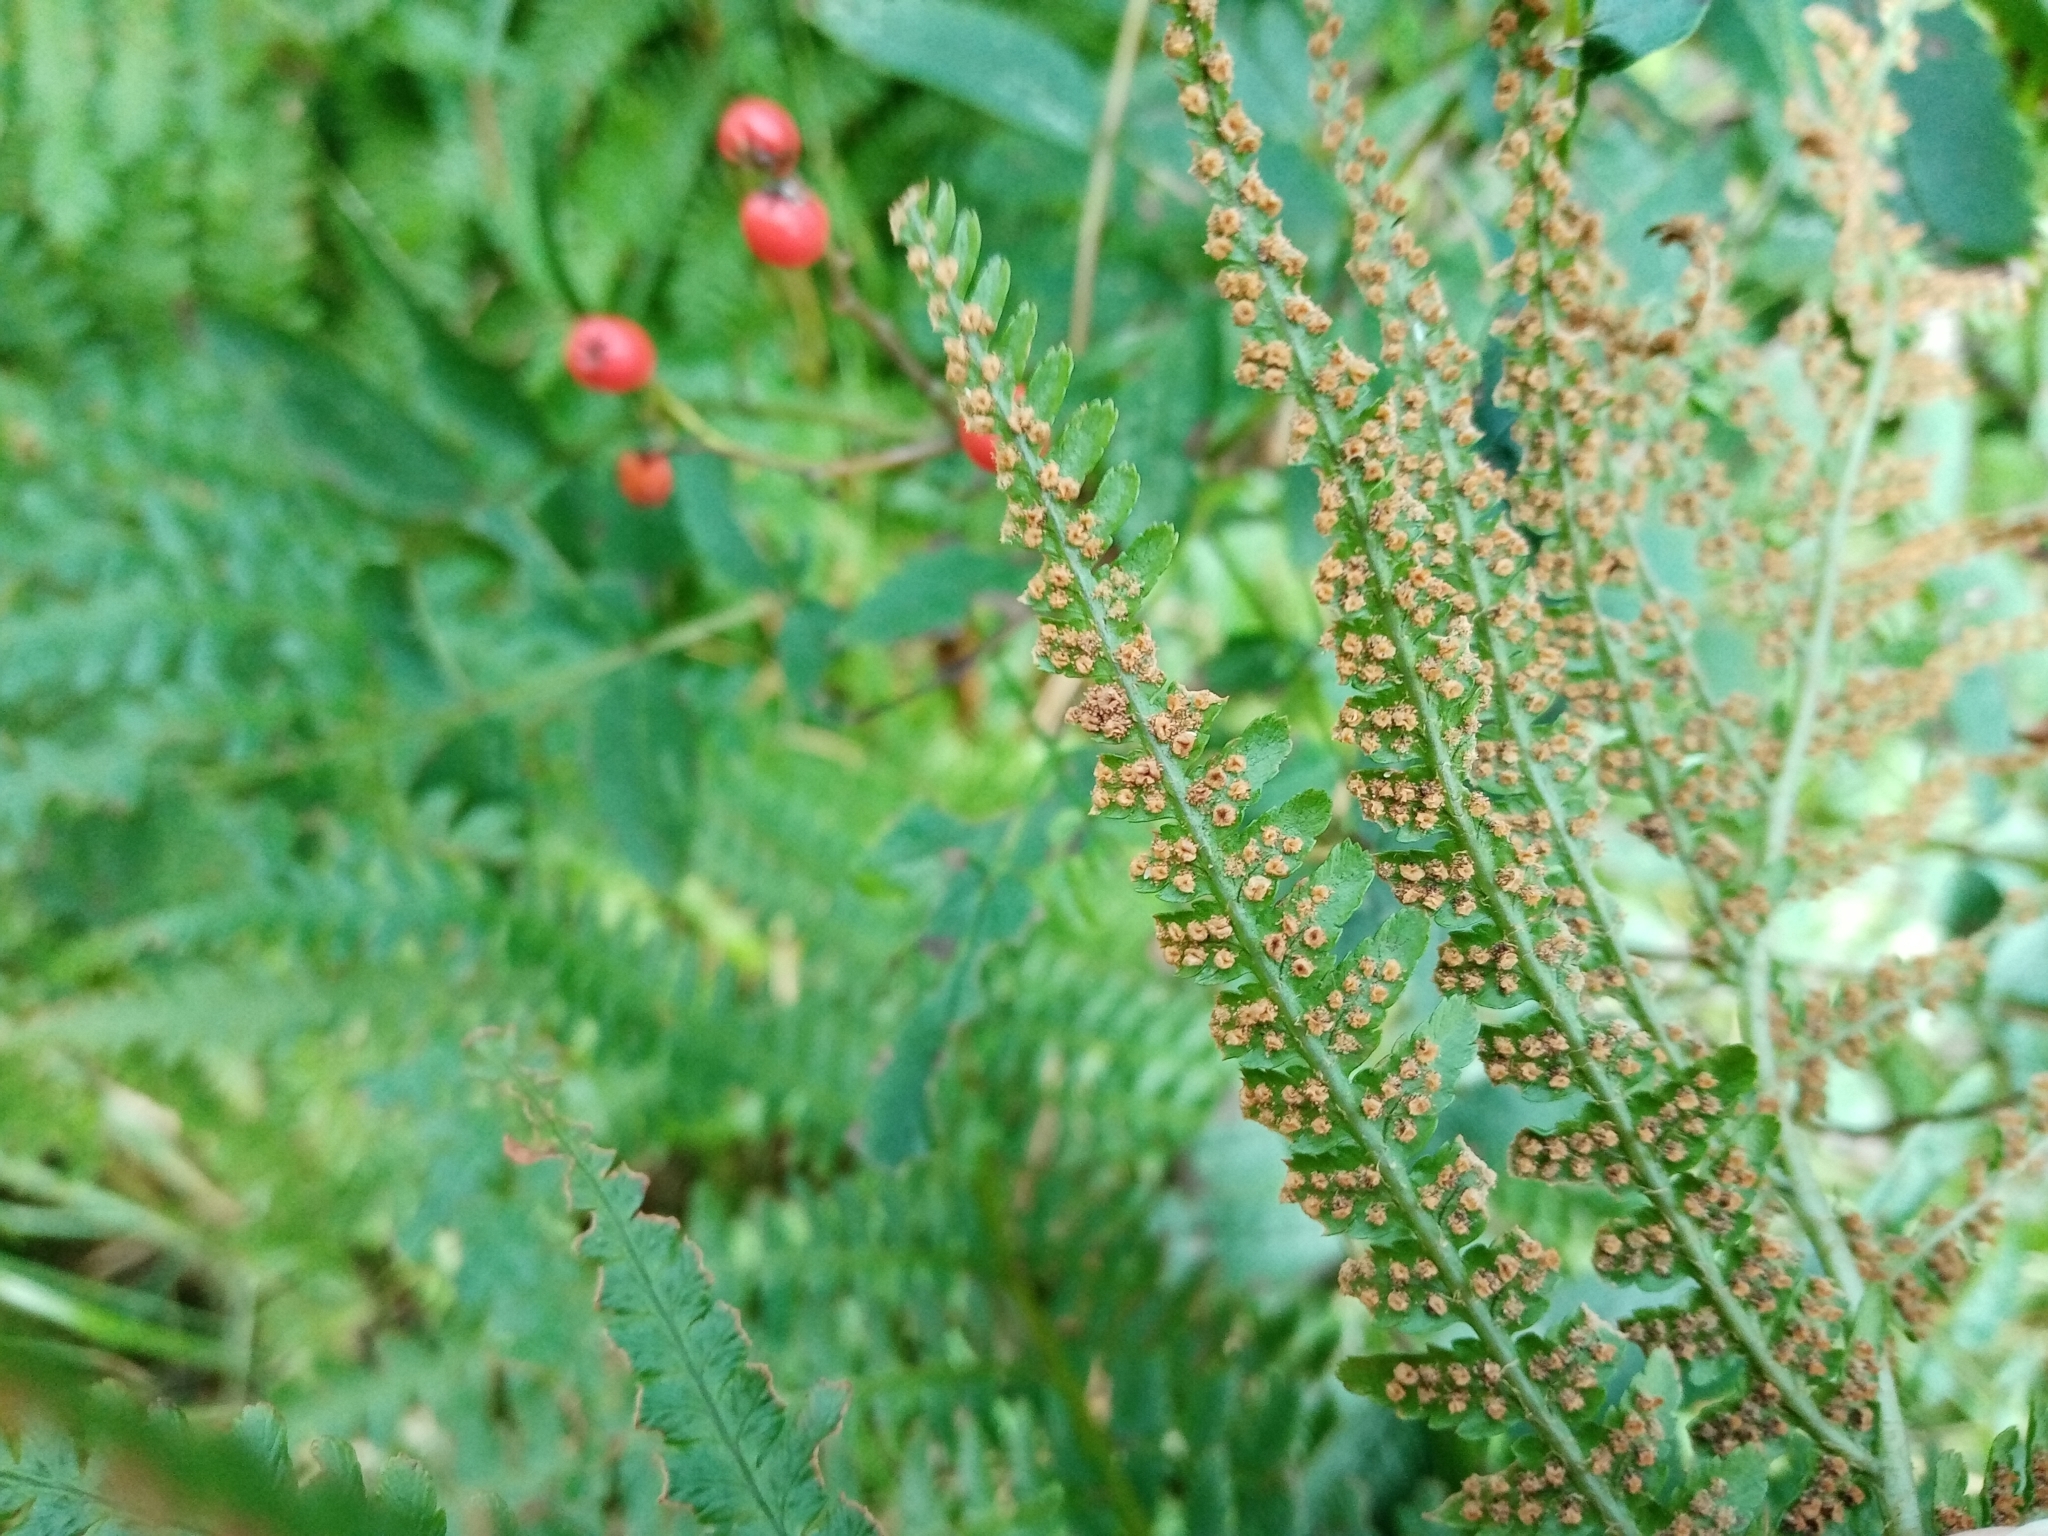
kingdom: Plantae
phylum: Tracheophyta
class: Polypodiopsida
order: Polypodiales
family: Dryopteridaceae
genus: Dryopteris
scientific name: Dryopteris filix-mas
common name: Male fern
